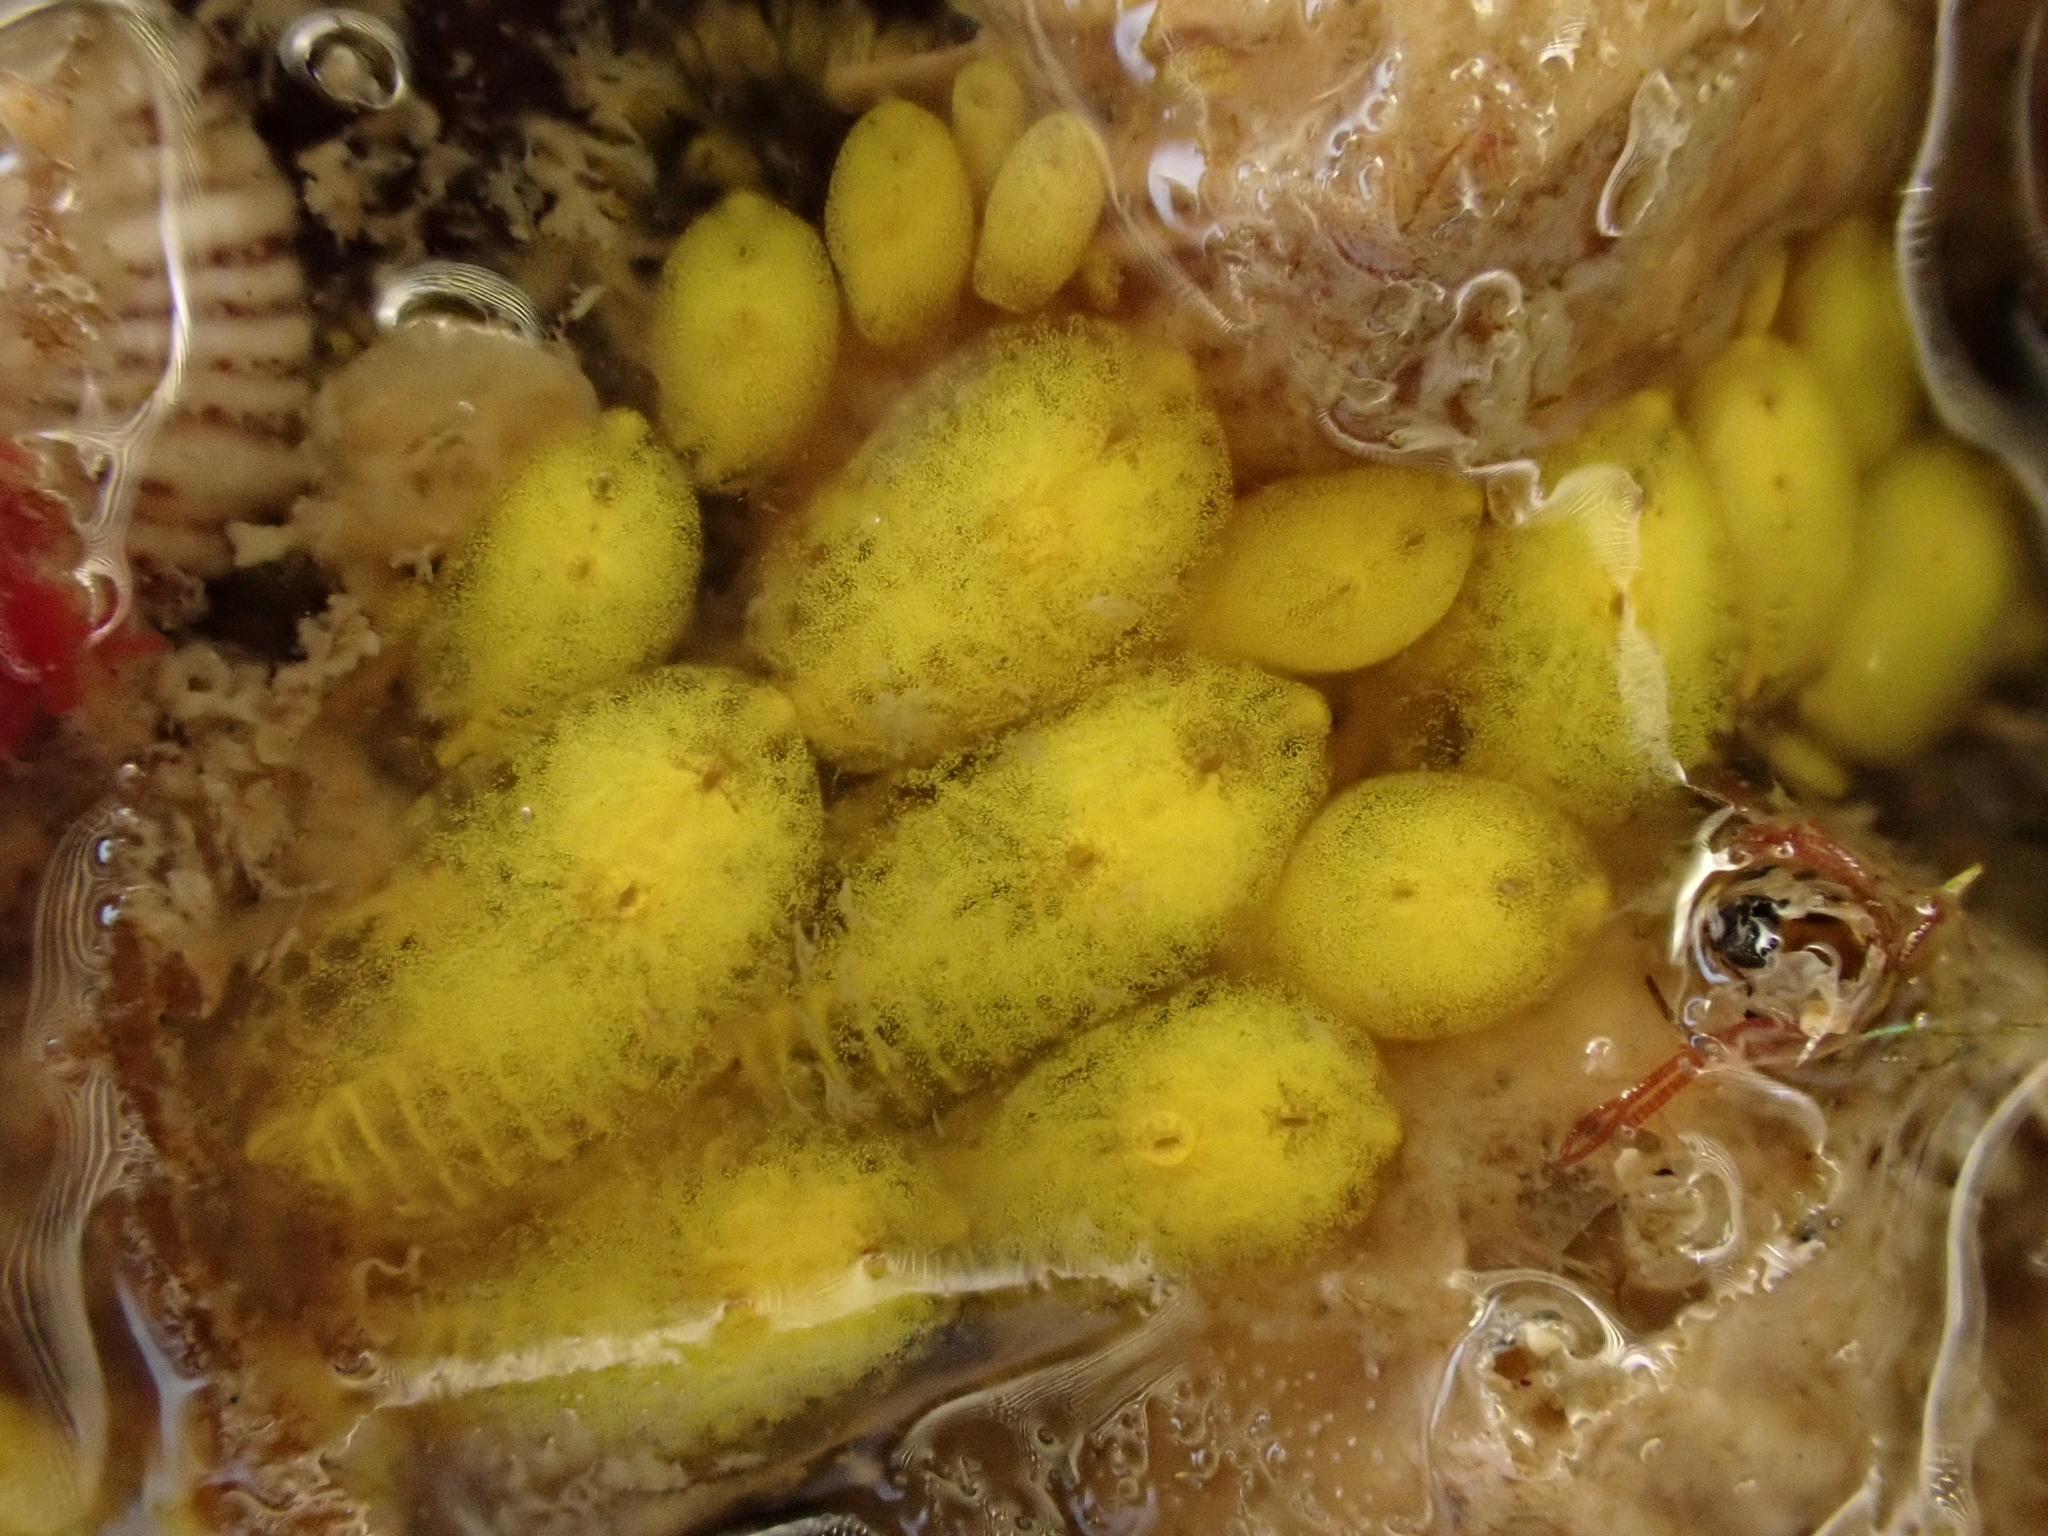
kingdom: Animalia
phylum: Chordata
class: Ascidiacea
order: Stolidobranchia
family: Styelidae
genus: Symplegma
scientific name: Symplegma brakenhielmi
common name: Ascidian
